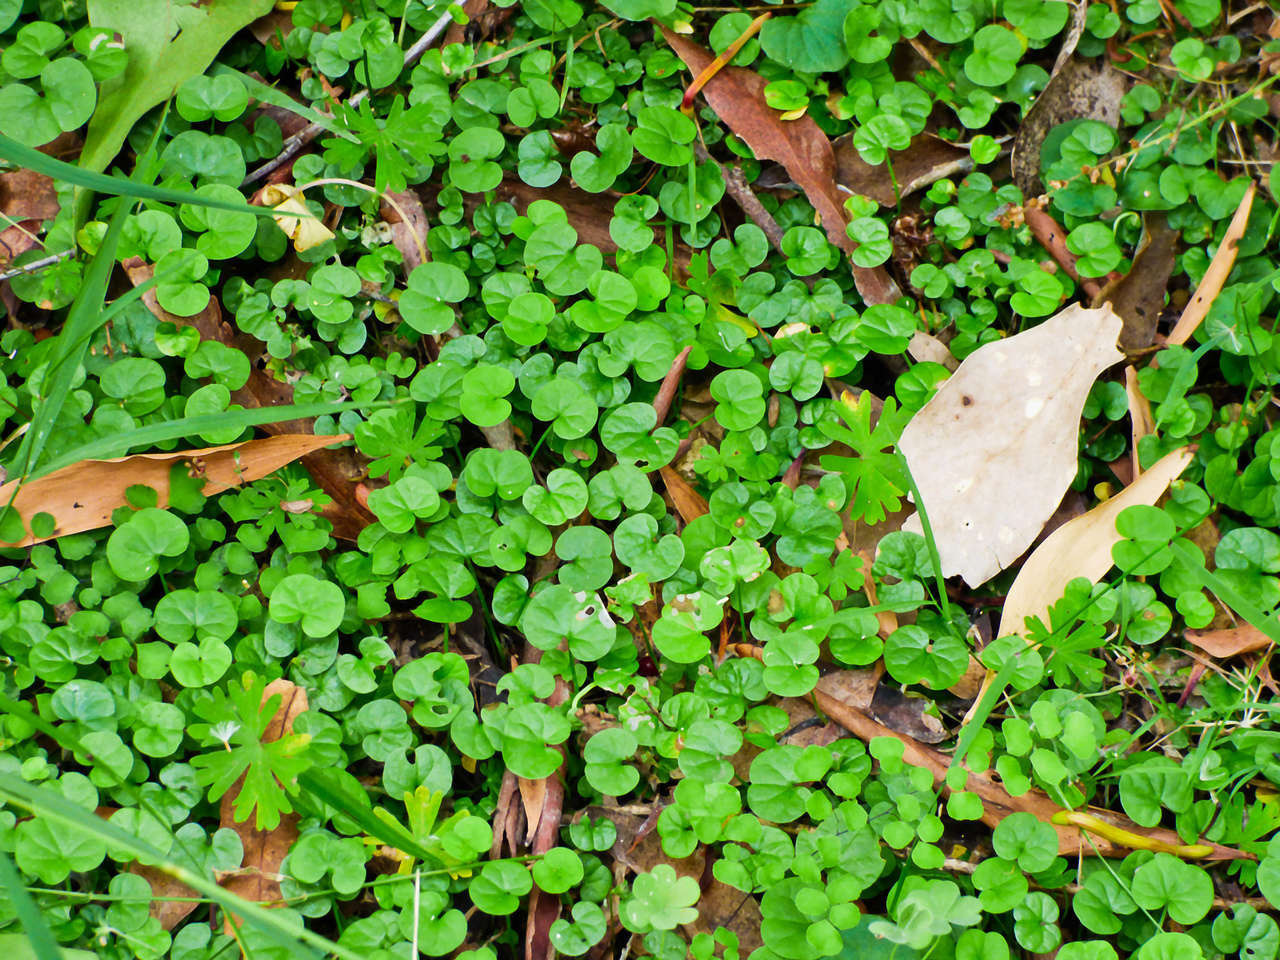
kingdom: Plantae
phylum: Tracheophyta
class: Magnoliopsida
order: Solanales
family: Convolvulaceae
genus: Dichondra
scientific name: Dichondra repens
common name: Kidneyweed
